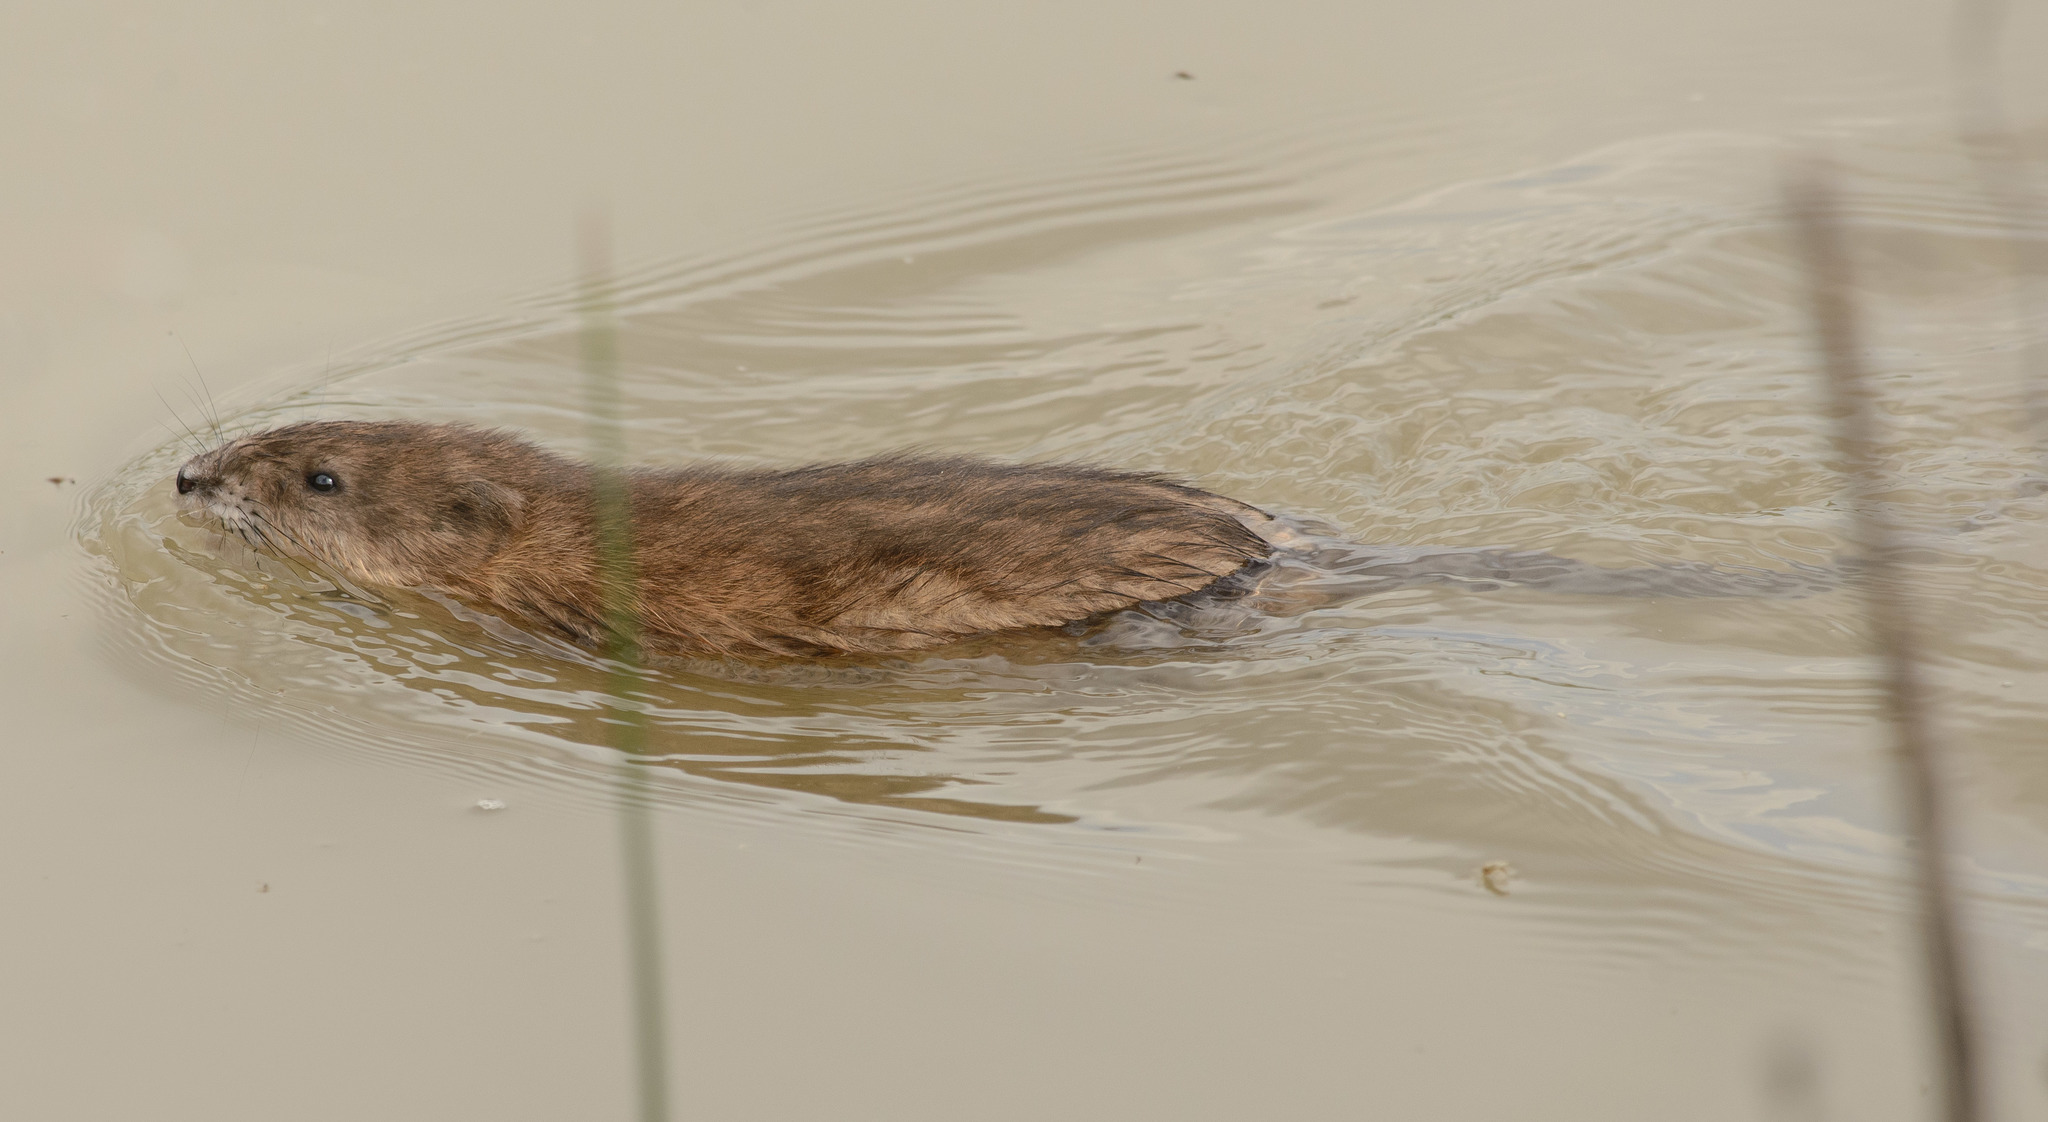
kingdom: Animalia
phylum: Chordata
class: Mammalia
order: Rodentia
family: Cricetidae
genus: Ondatra
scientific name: Ondatra zibethicus
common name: Muskrat
